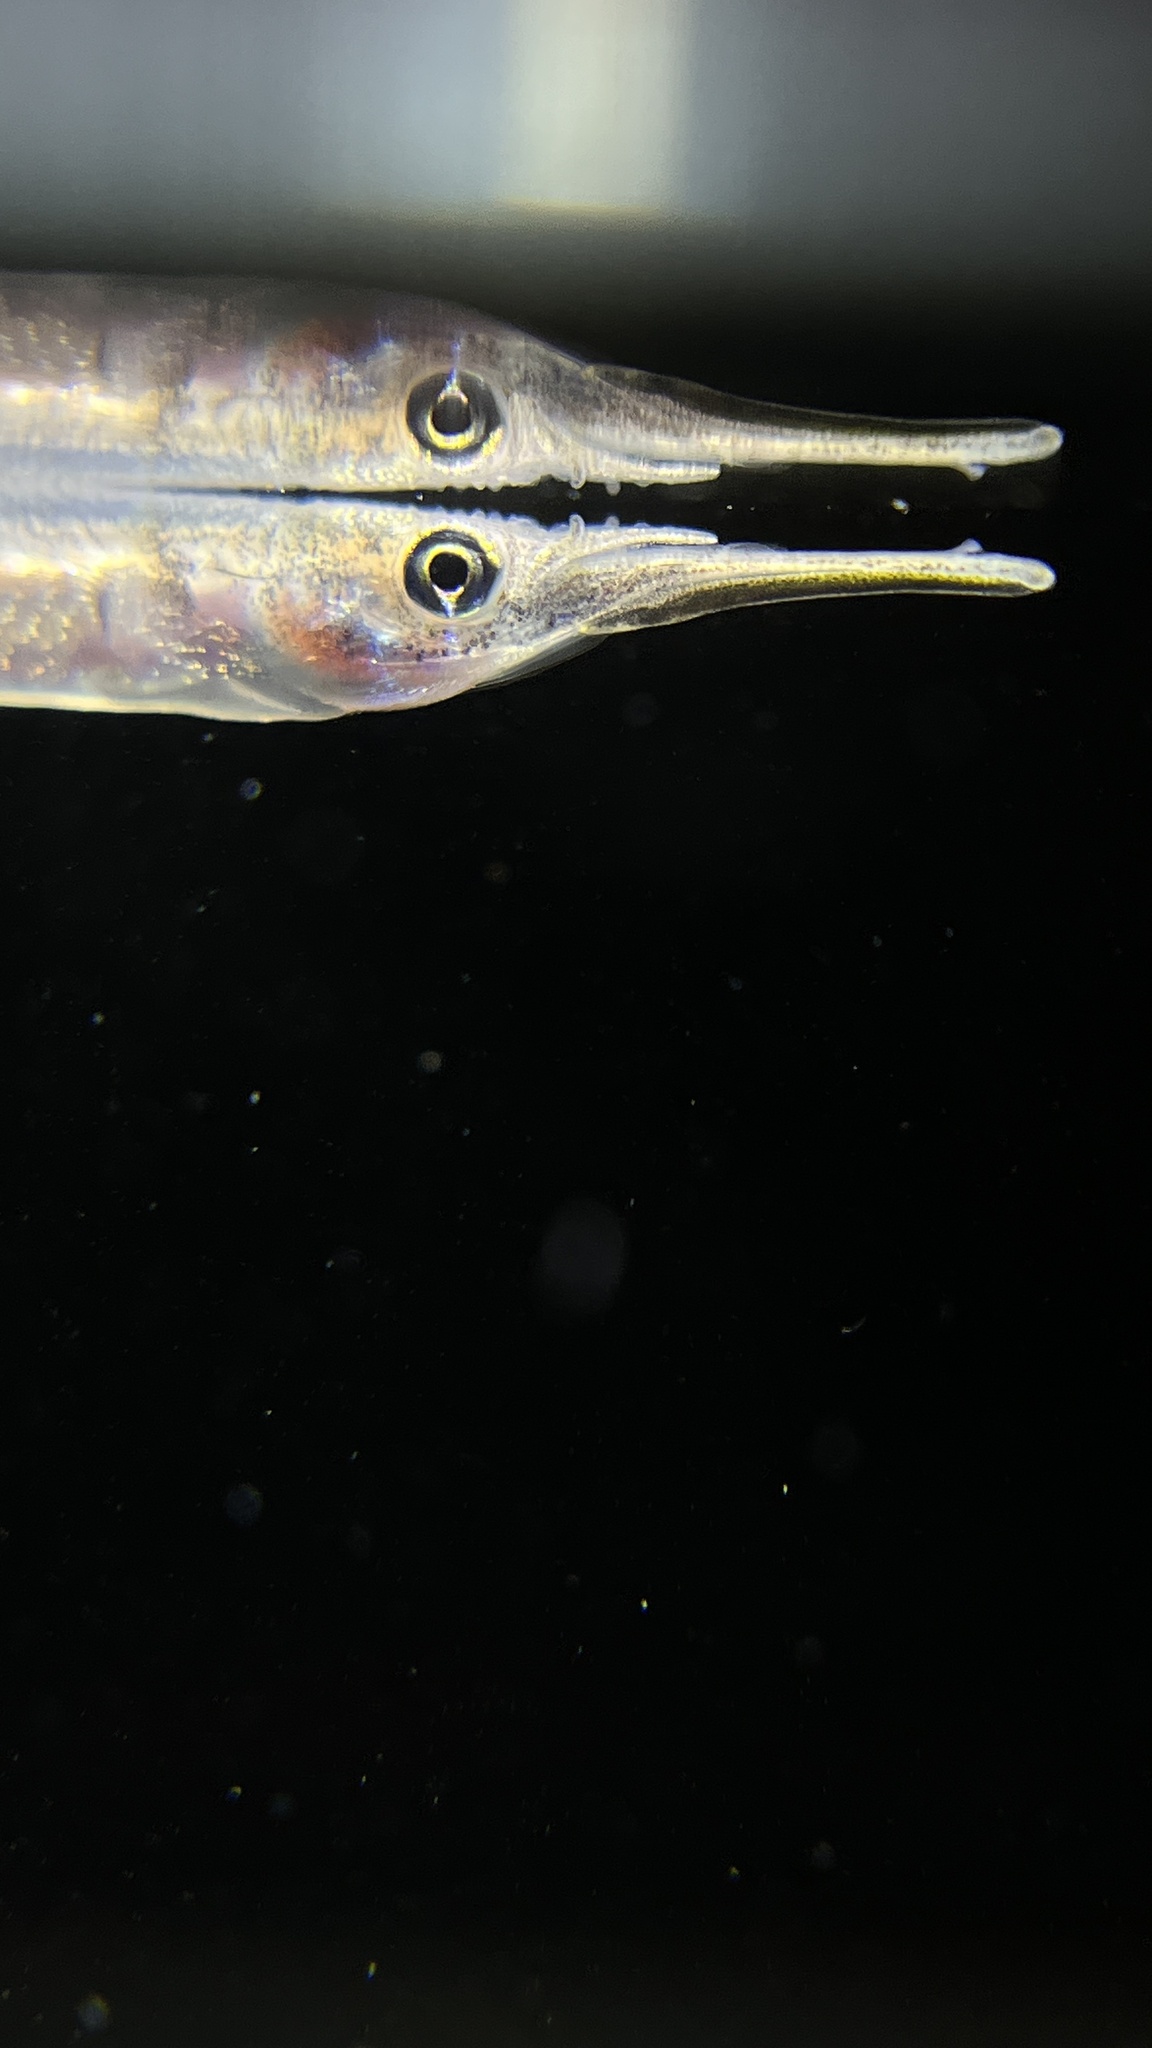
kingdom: Animalia
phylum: Chordata
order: Beloniformes
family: Zenarchopteridae
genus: Dermogenys
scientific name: Dermogenys siamensis
